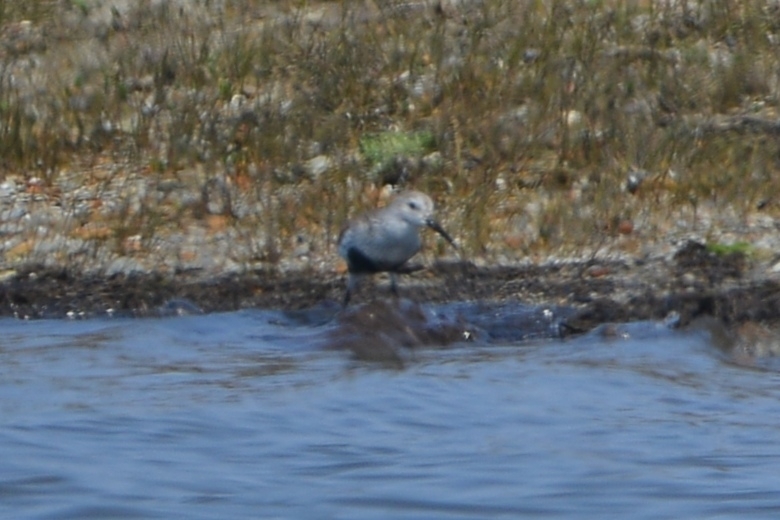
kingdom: Animalia
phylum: Chordata
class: Aves
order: Charadriiformes
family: Scolopacidae
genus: Calidris
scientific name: Calidris alpina
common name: Dunlin
